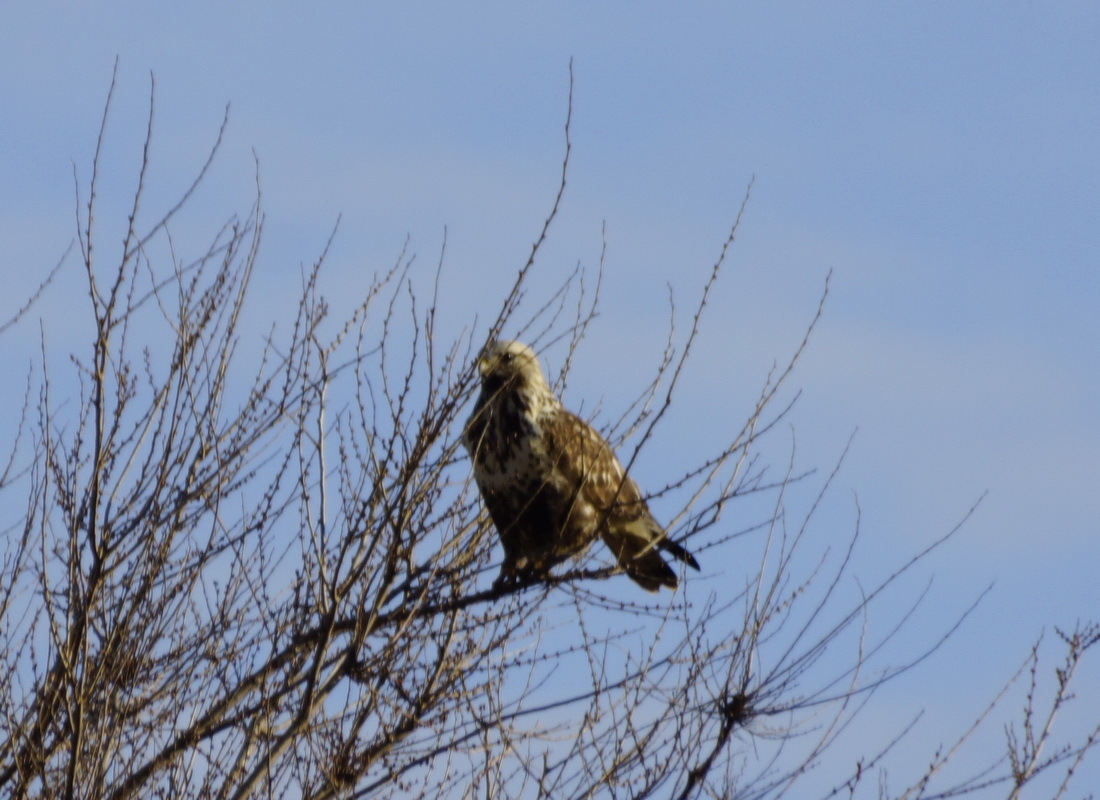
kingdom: Animalia
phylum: Chordata
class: Aves
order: Accipitriformes
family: Accipitridae
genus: Buteo
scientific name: Buteo lagopus
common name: Rough-legged buzzard
